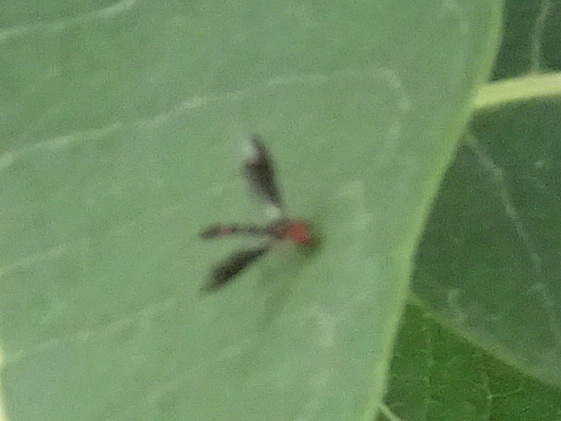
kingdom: Animalia
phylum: Arthropoda
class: Insecta
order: Diptera
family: Syrphidae
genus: Ocyptamus
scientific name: Ocyptamus fuscipennis
